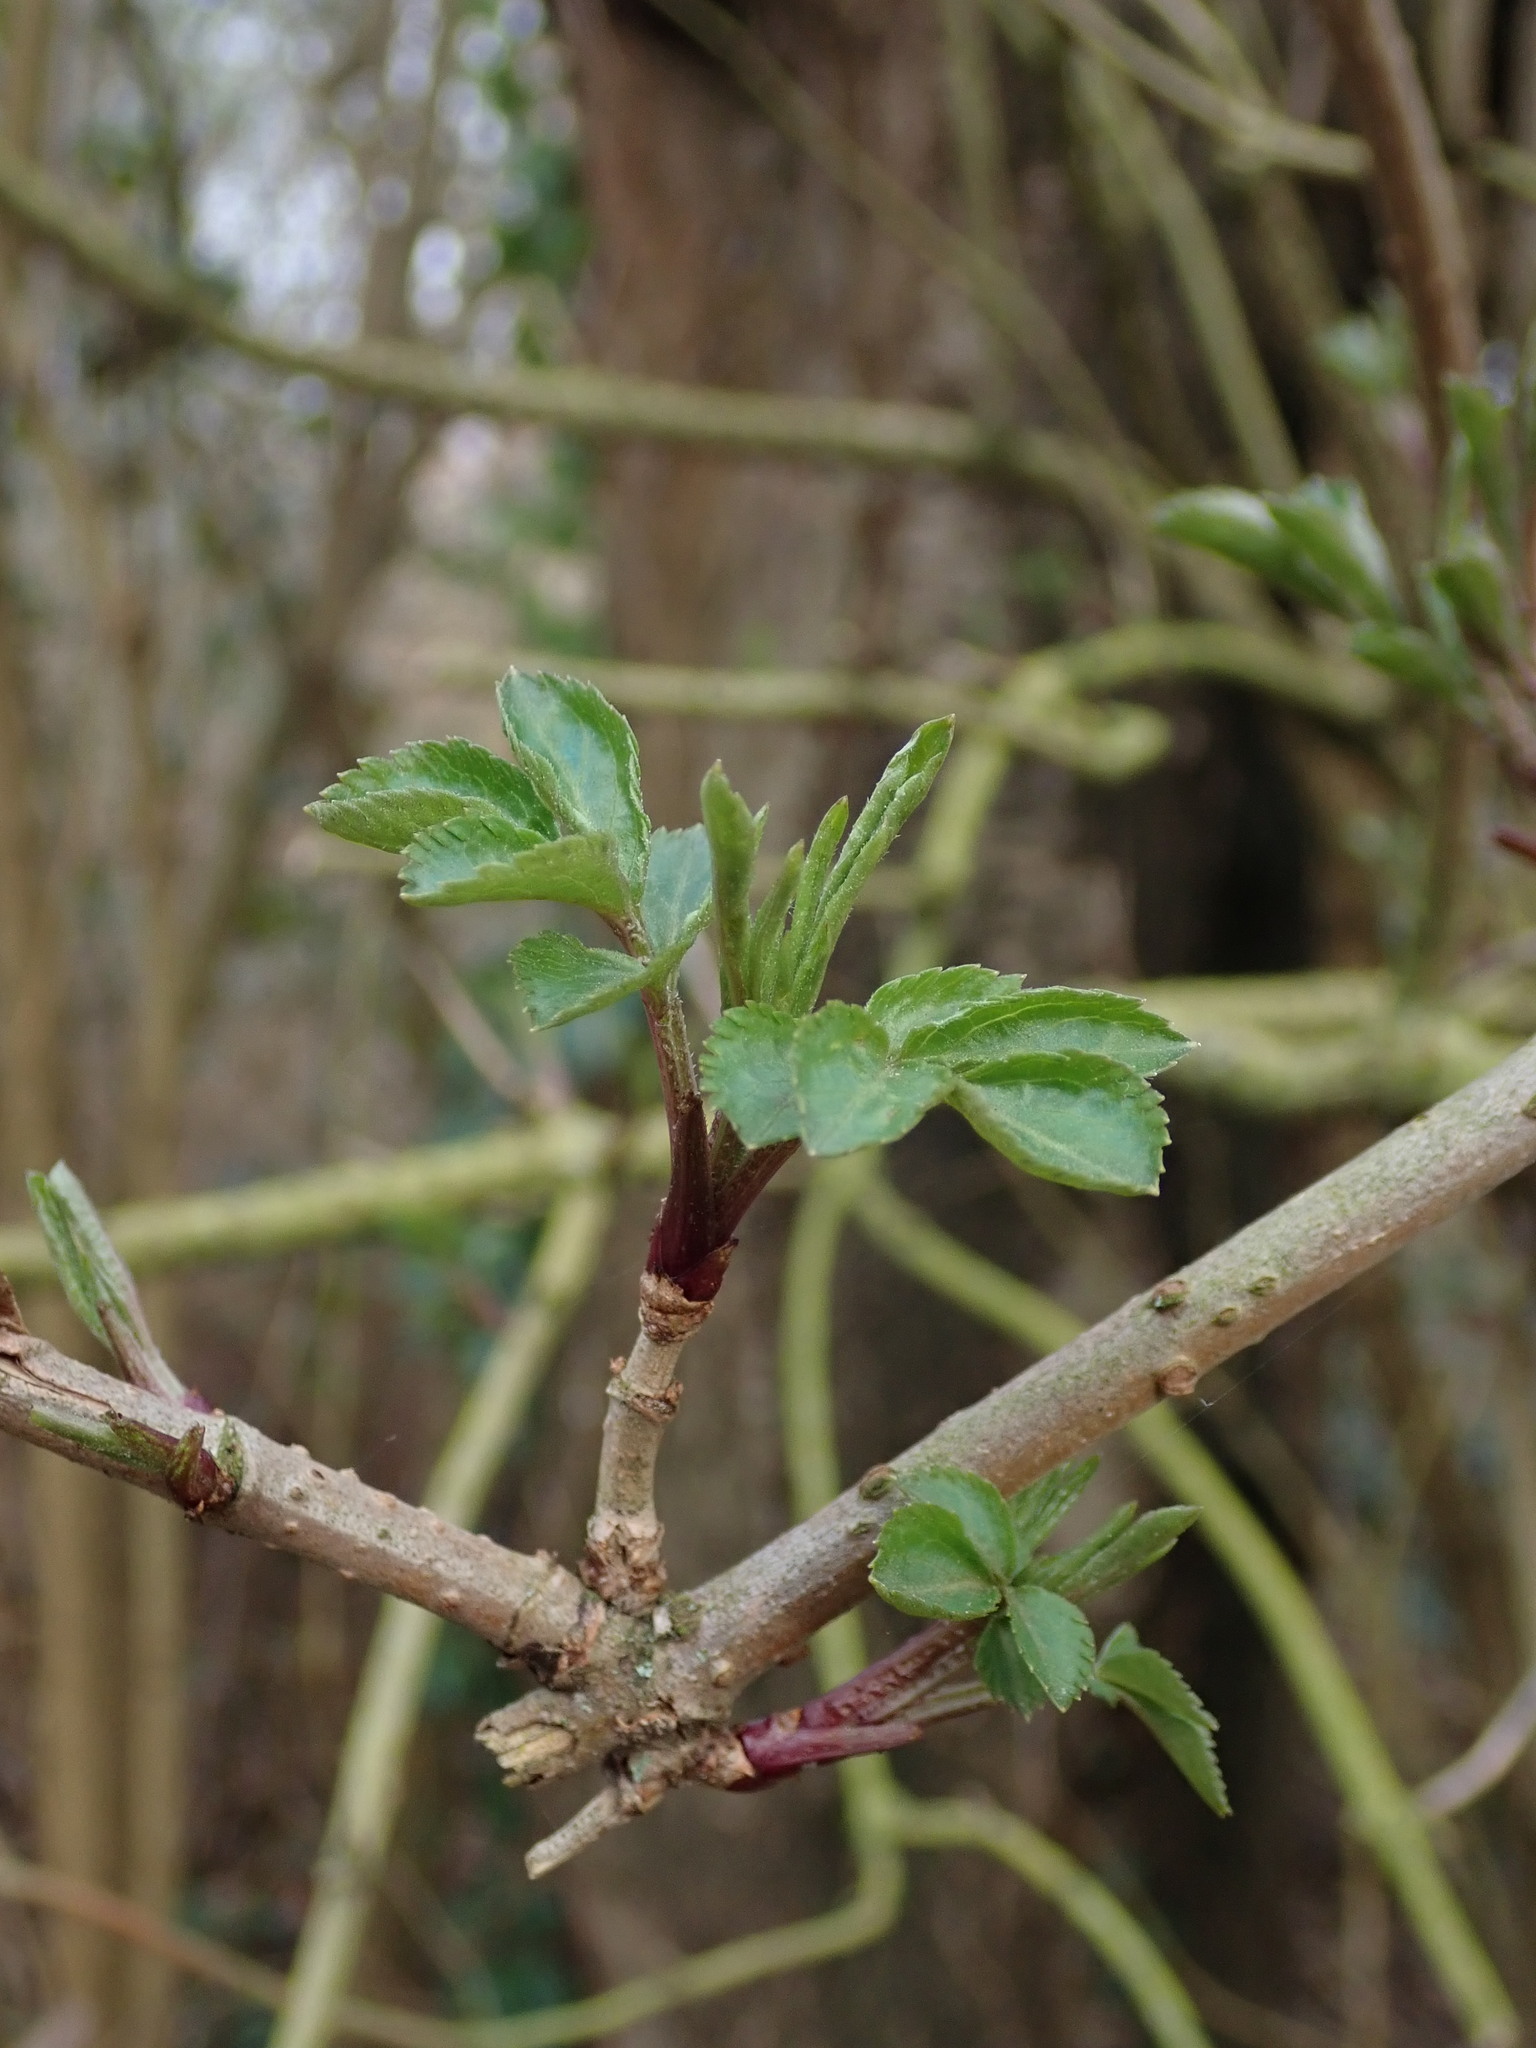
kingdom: Plantae
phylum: Tracheophyta
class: Magnoliopsida
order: Dipsacales
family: Viburnaceae
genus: Sambucus
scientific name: Sambucus nigra
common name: Elder
